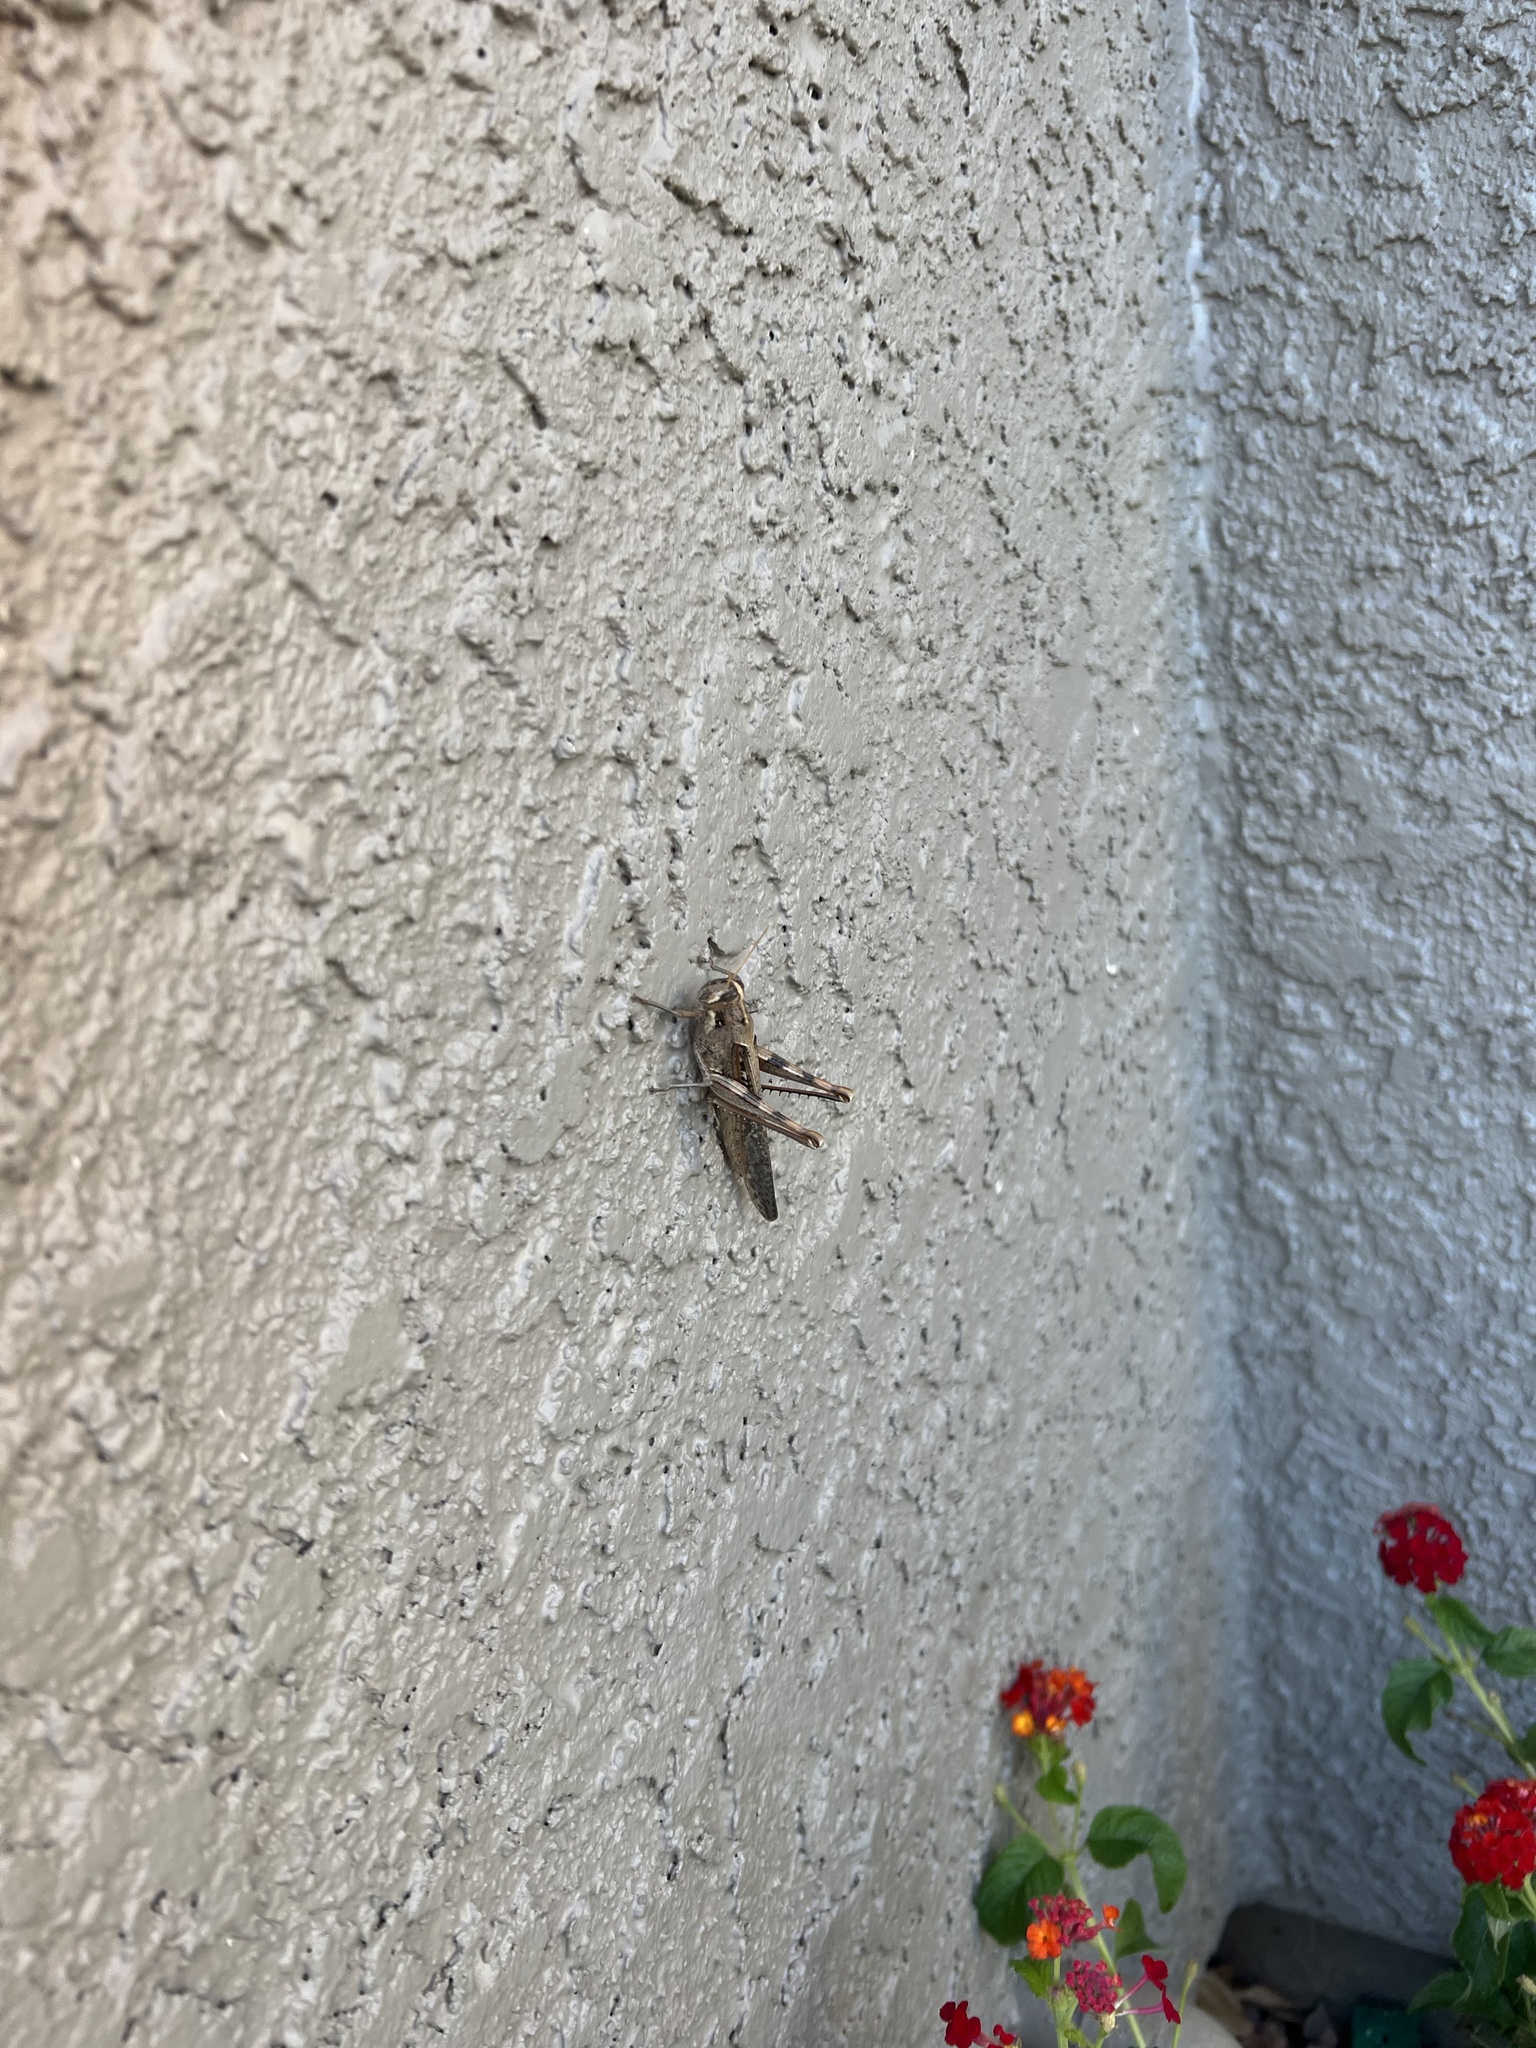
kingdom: Animalia
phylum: Arthropoda
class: Insecta
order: Orthoptera
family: Acrididae
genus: Schistocerca
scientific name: Schistocerca nitens
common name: Vagrant grasshopper
